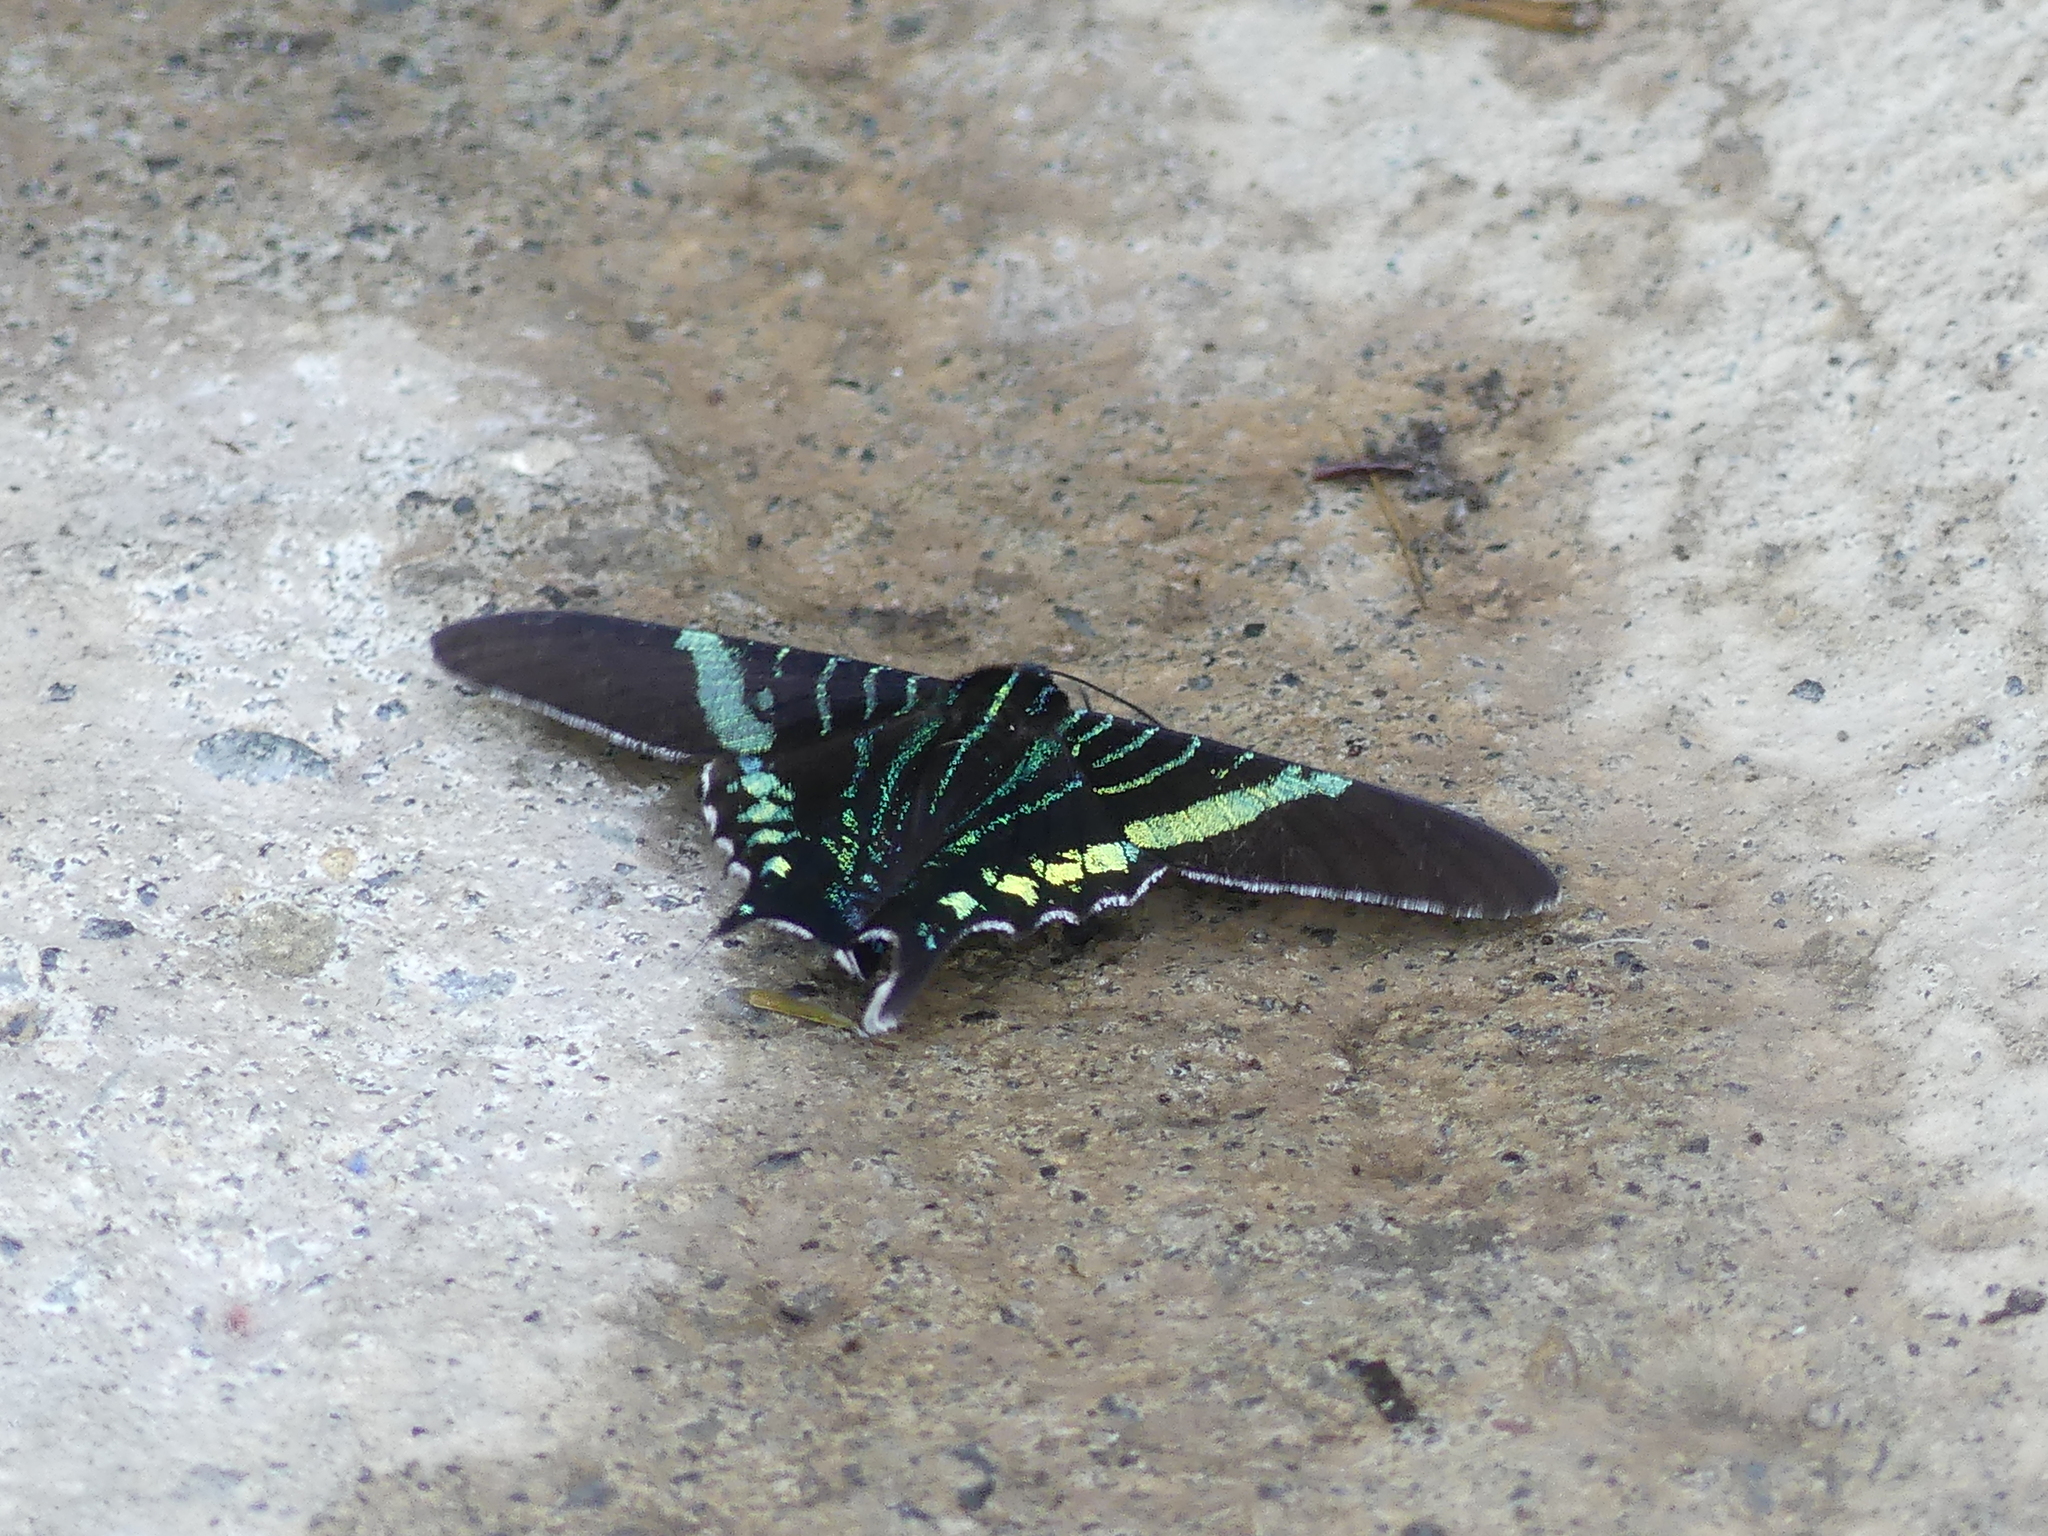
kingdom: Animalia
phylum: Arthropoda
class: Insecta
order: Lepidoptera
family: Uraniidae
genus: Urania
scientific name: Urania fulgens
